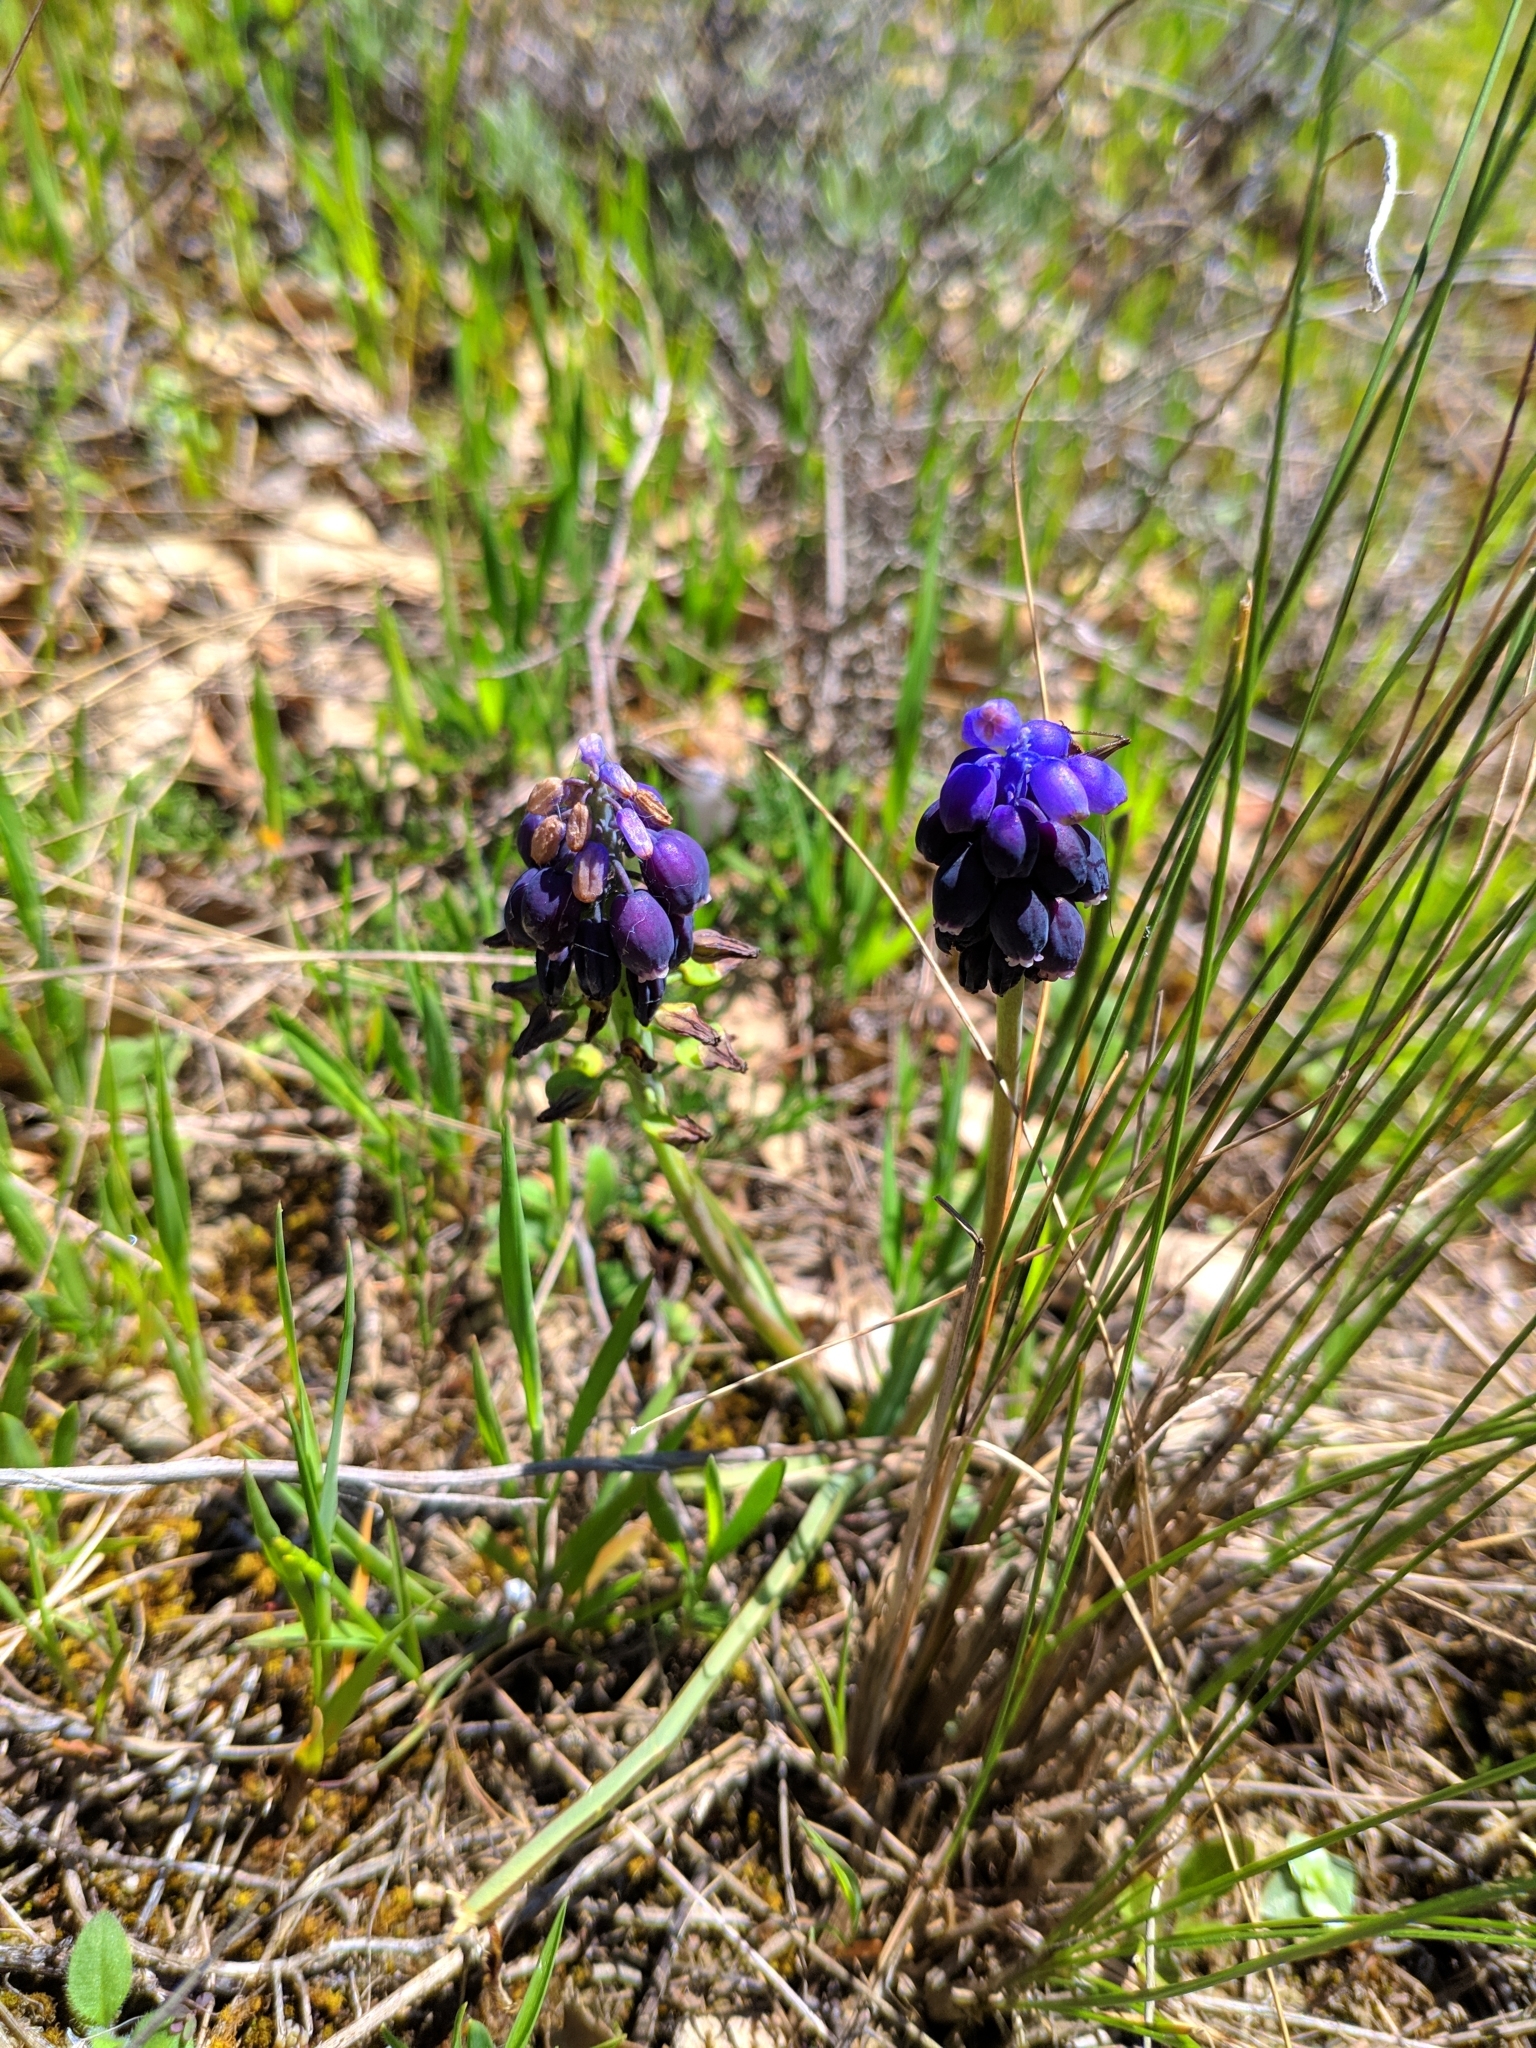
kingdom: Plantae
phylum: Tracheophyta
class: Liliopsida
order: Asparagales
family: Asparagaceae
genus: Muscari
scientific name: Muscari neglectum
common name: Grape-hyacinth
